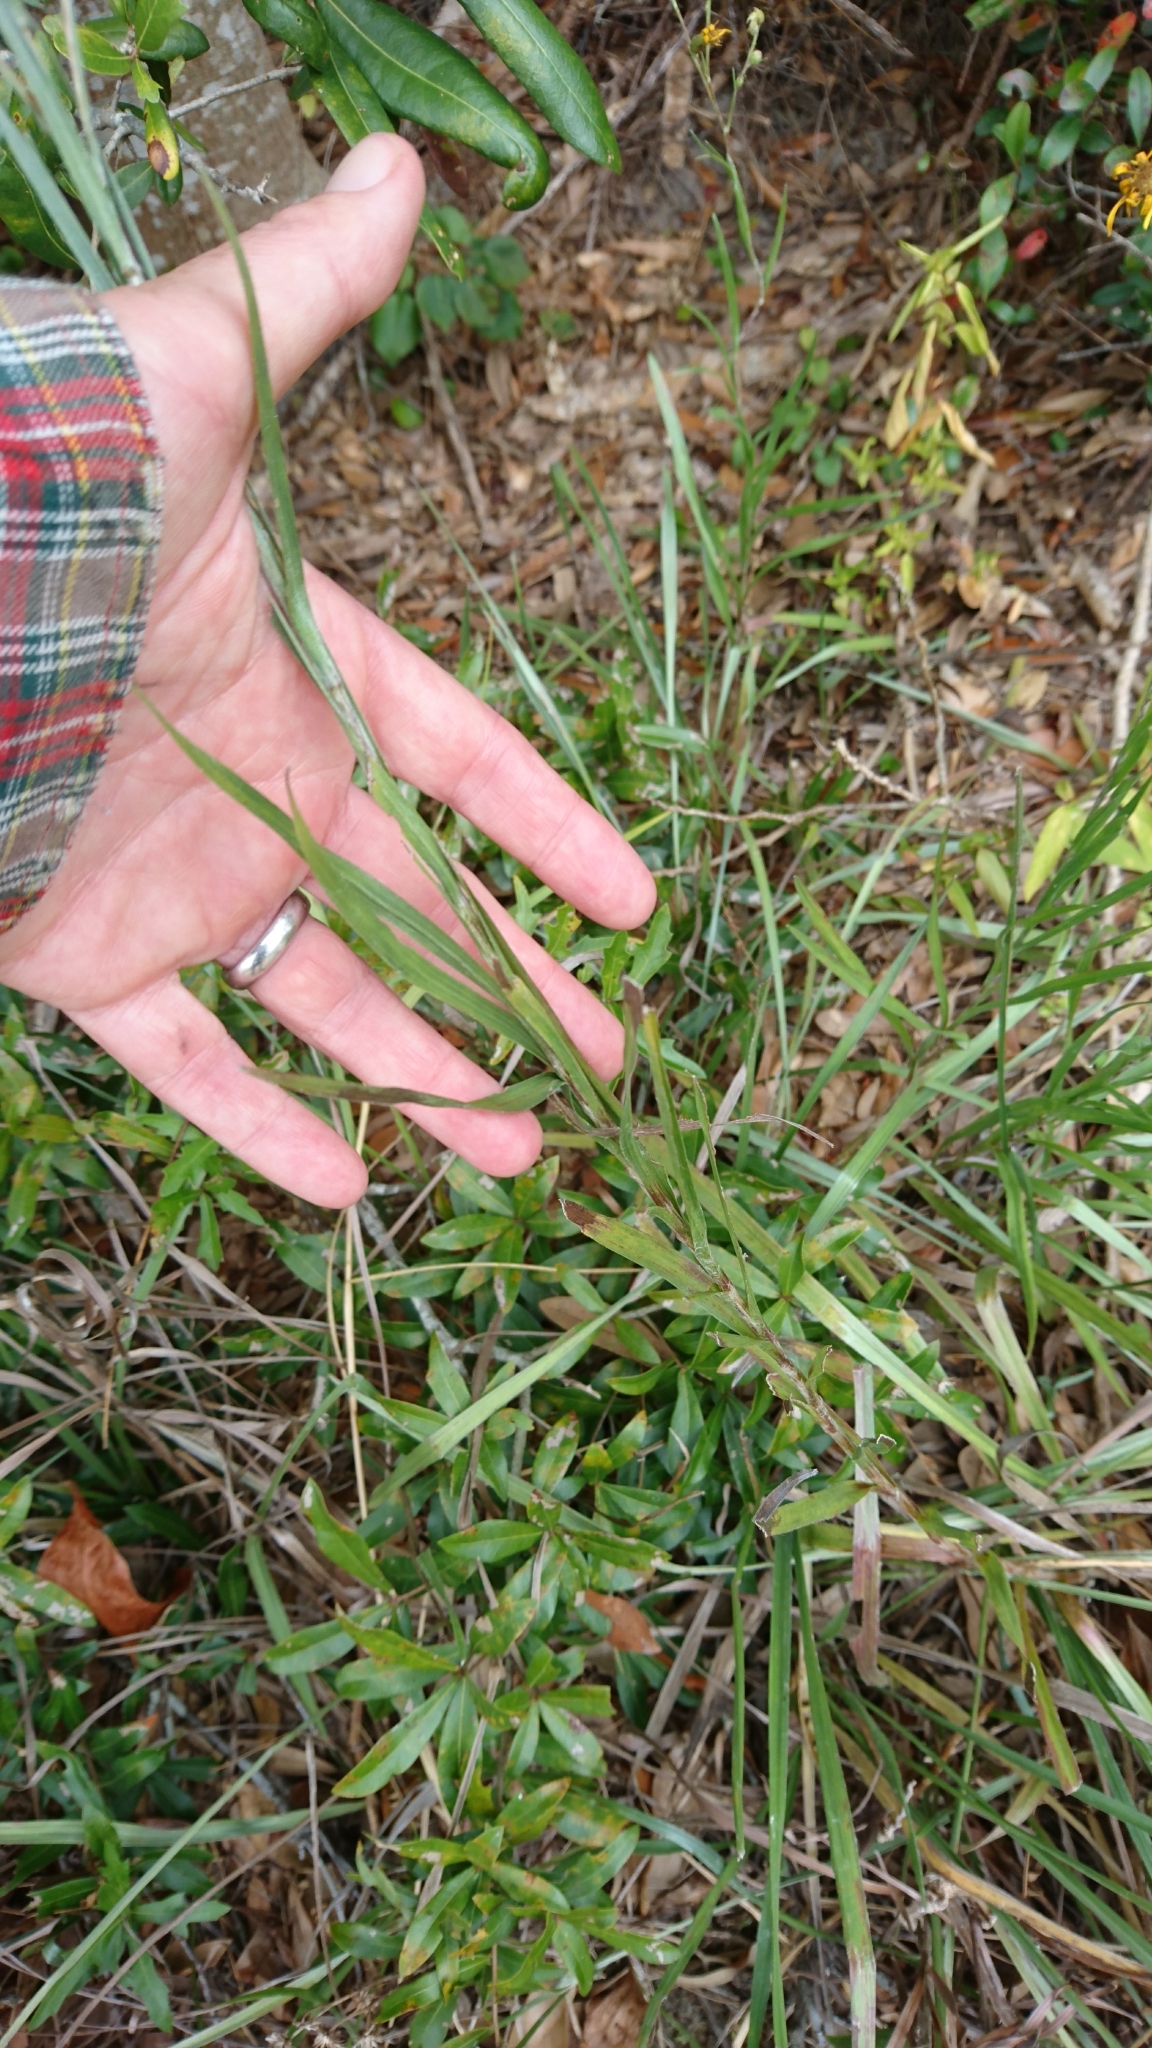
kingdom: Plantae
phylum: Tracheophyta
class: Magnoliopsida
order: Asterales
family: Asteraceae
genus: Pityopsis
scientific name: Pityopsis graminifolia
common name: Grass-leaf golden-aster
